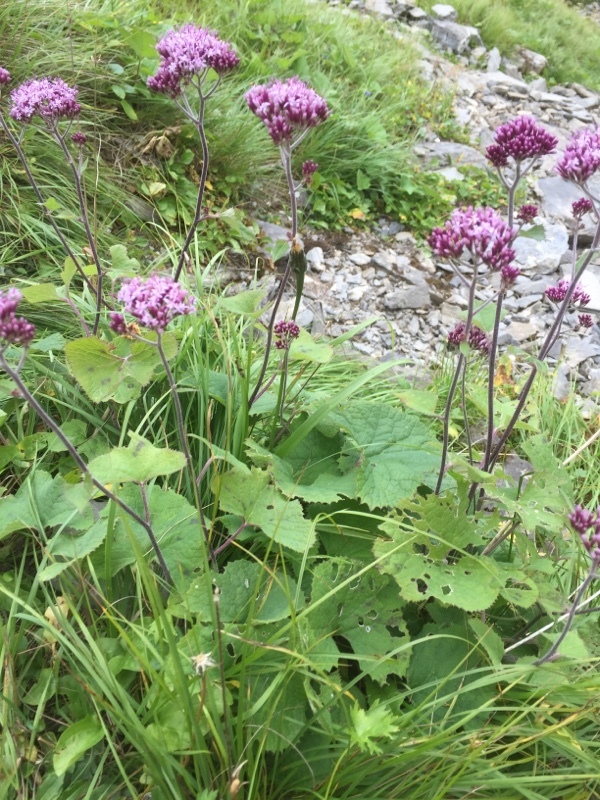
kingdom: Plantae
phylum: Tracheophyta
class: Magnoliopsida
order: Asterales
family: Asteraceae
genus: Adenostyles
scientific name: Adenostyles alpina
